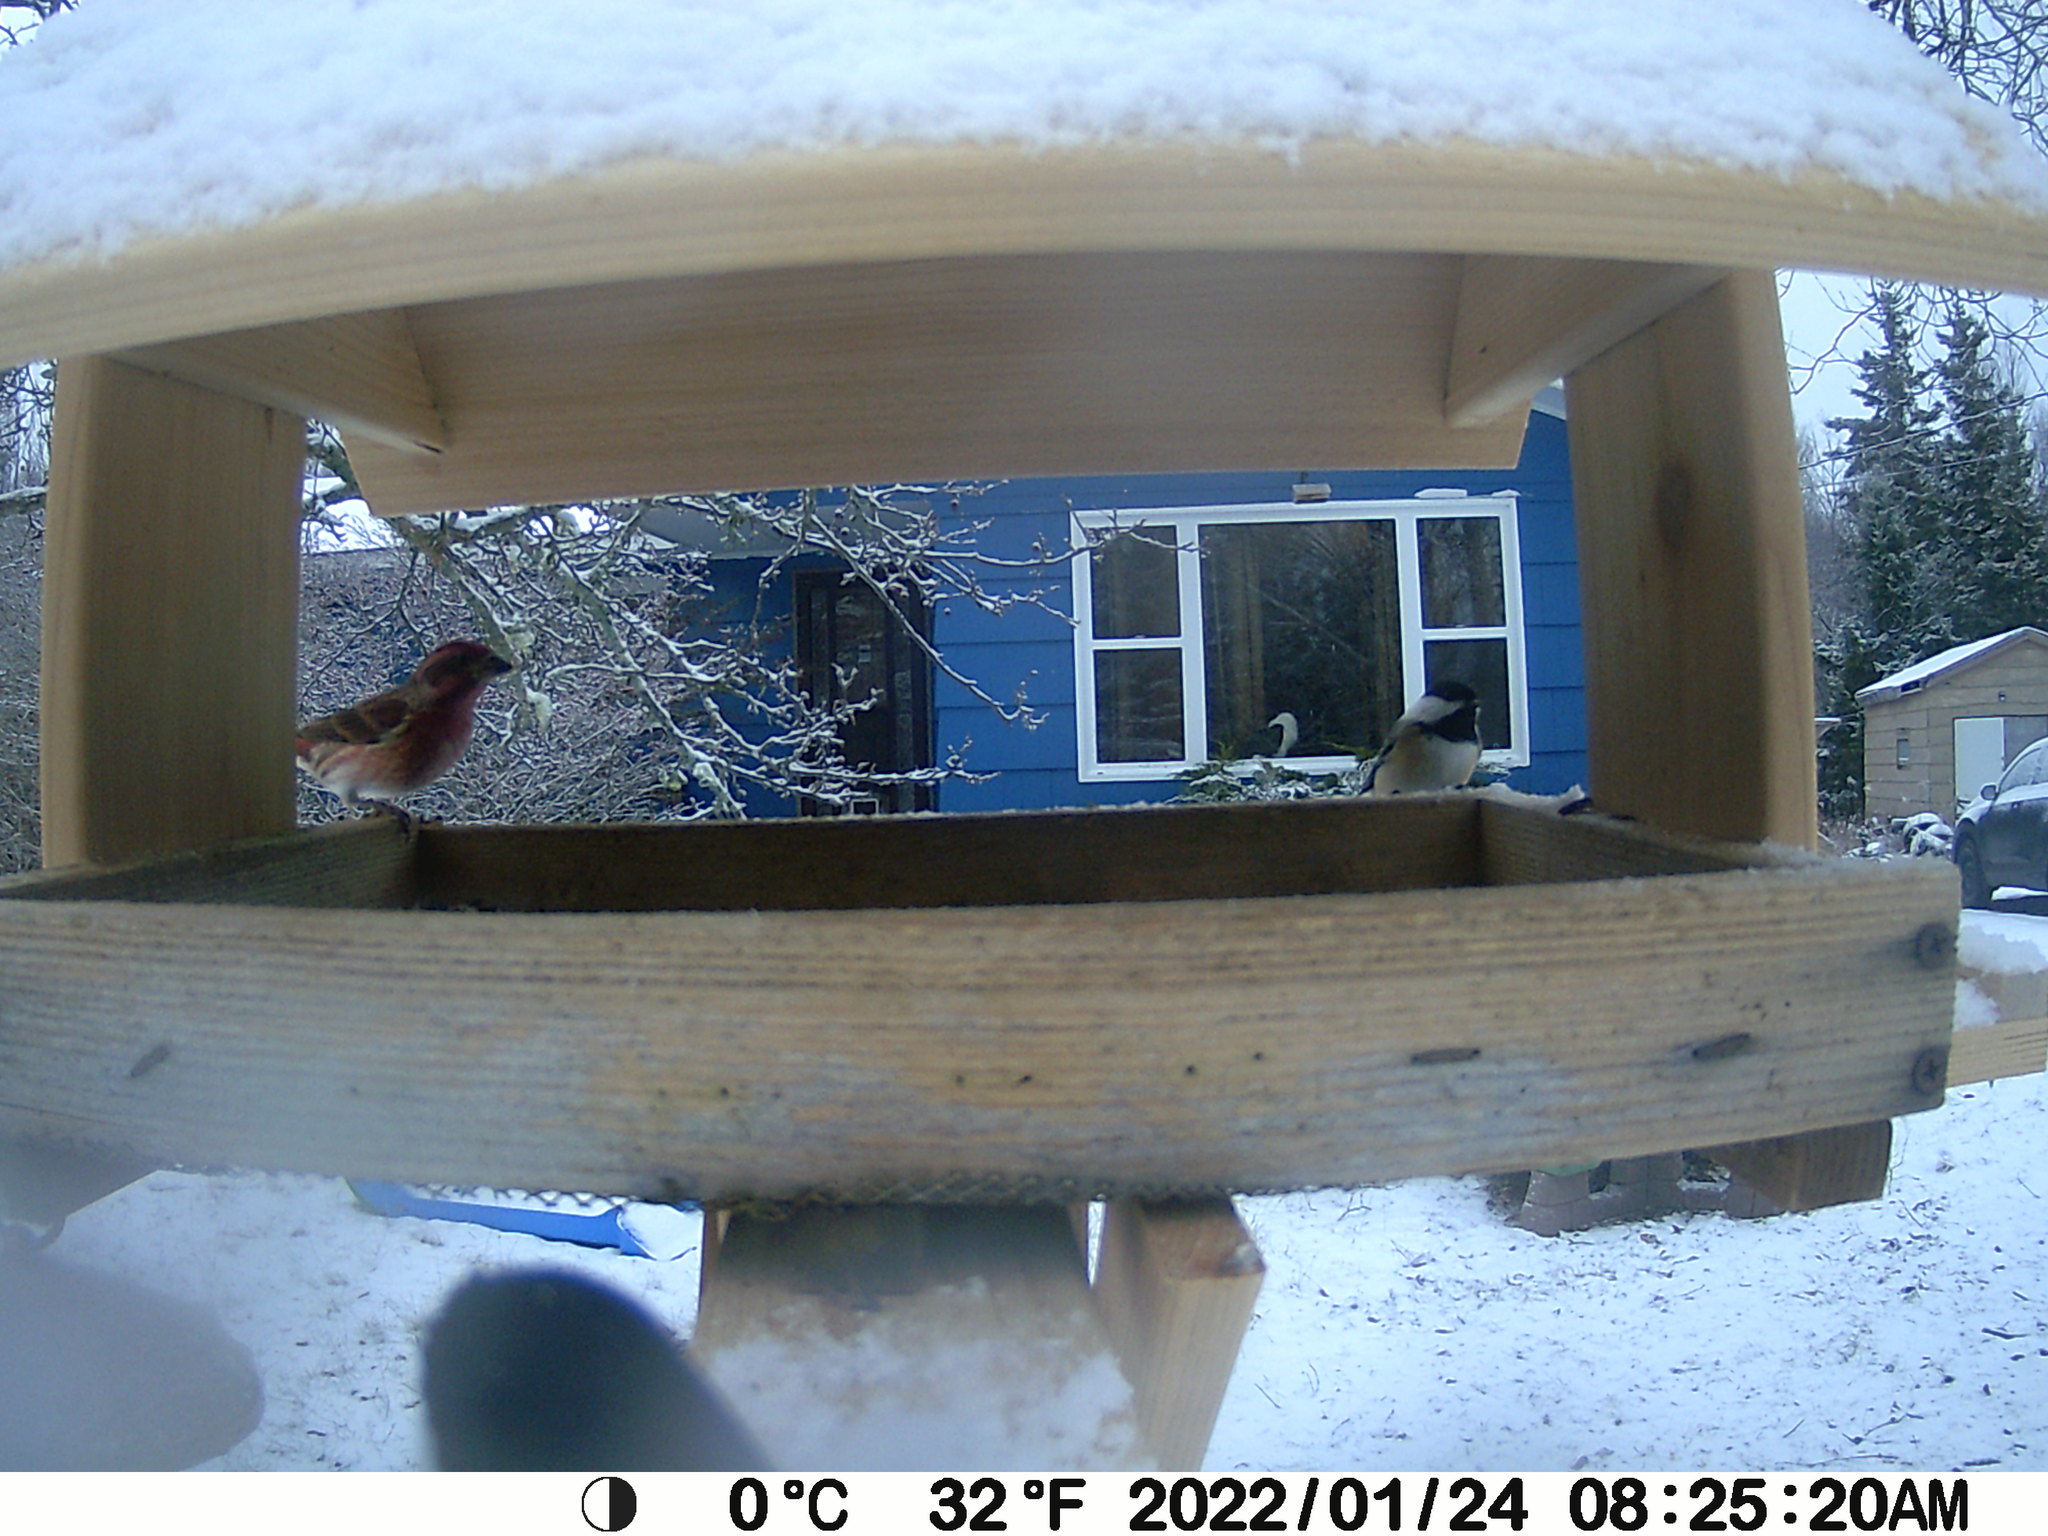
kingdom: Animalia
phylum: Chordata
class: Aves
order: Passeriformes
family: Fringillidae
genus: Haemorhous
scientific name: Haemorhous purpureus
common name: Purple finch
